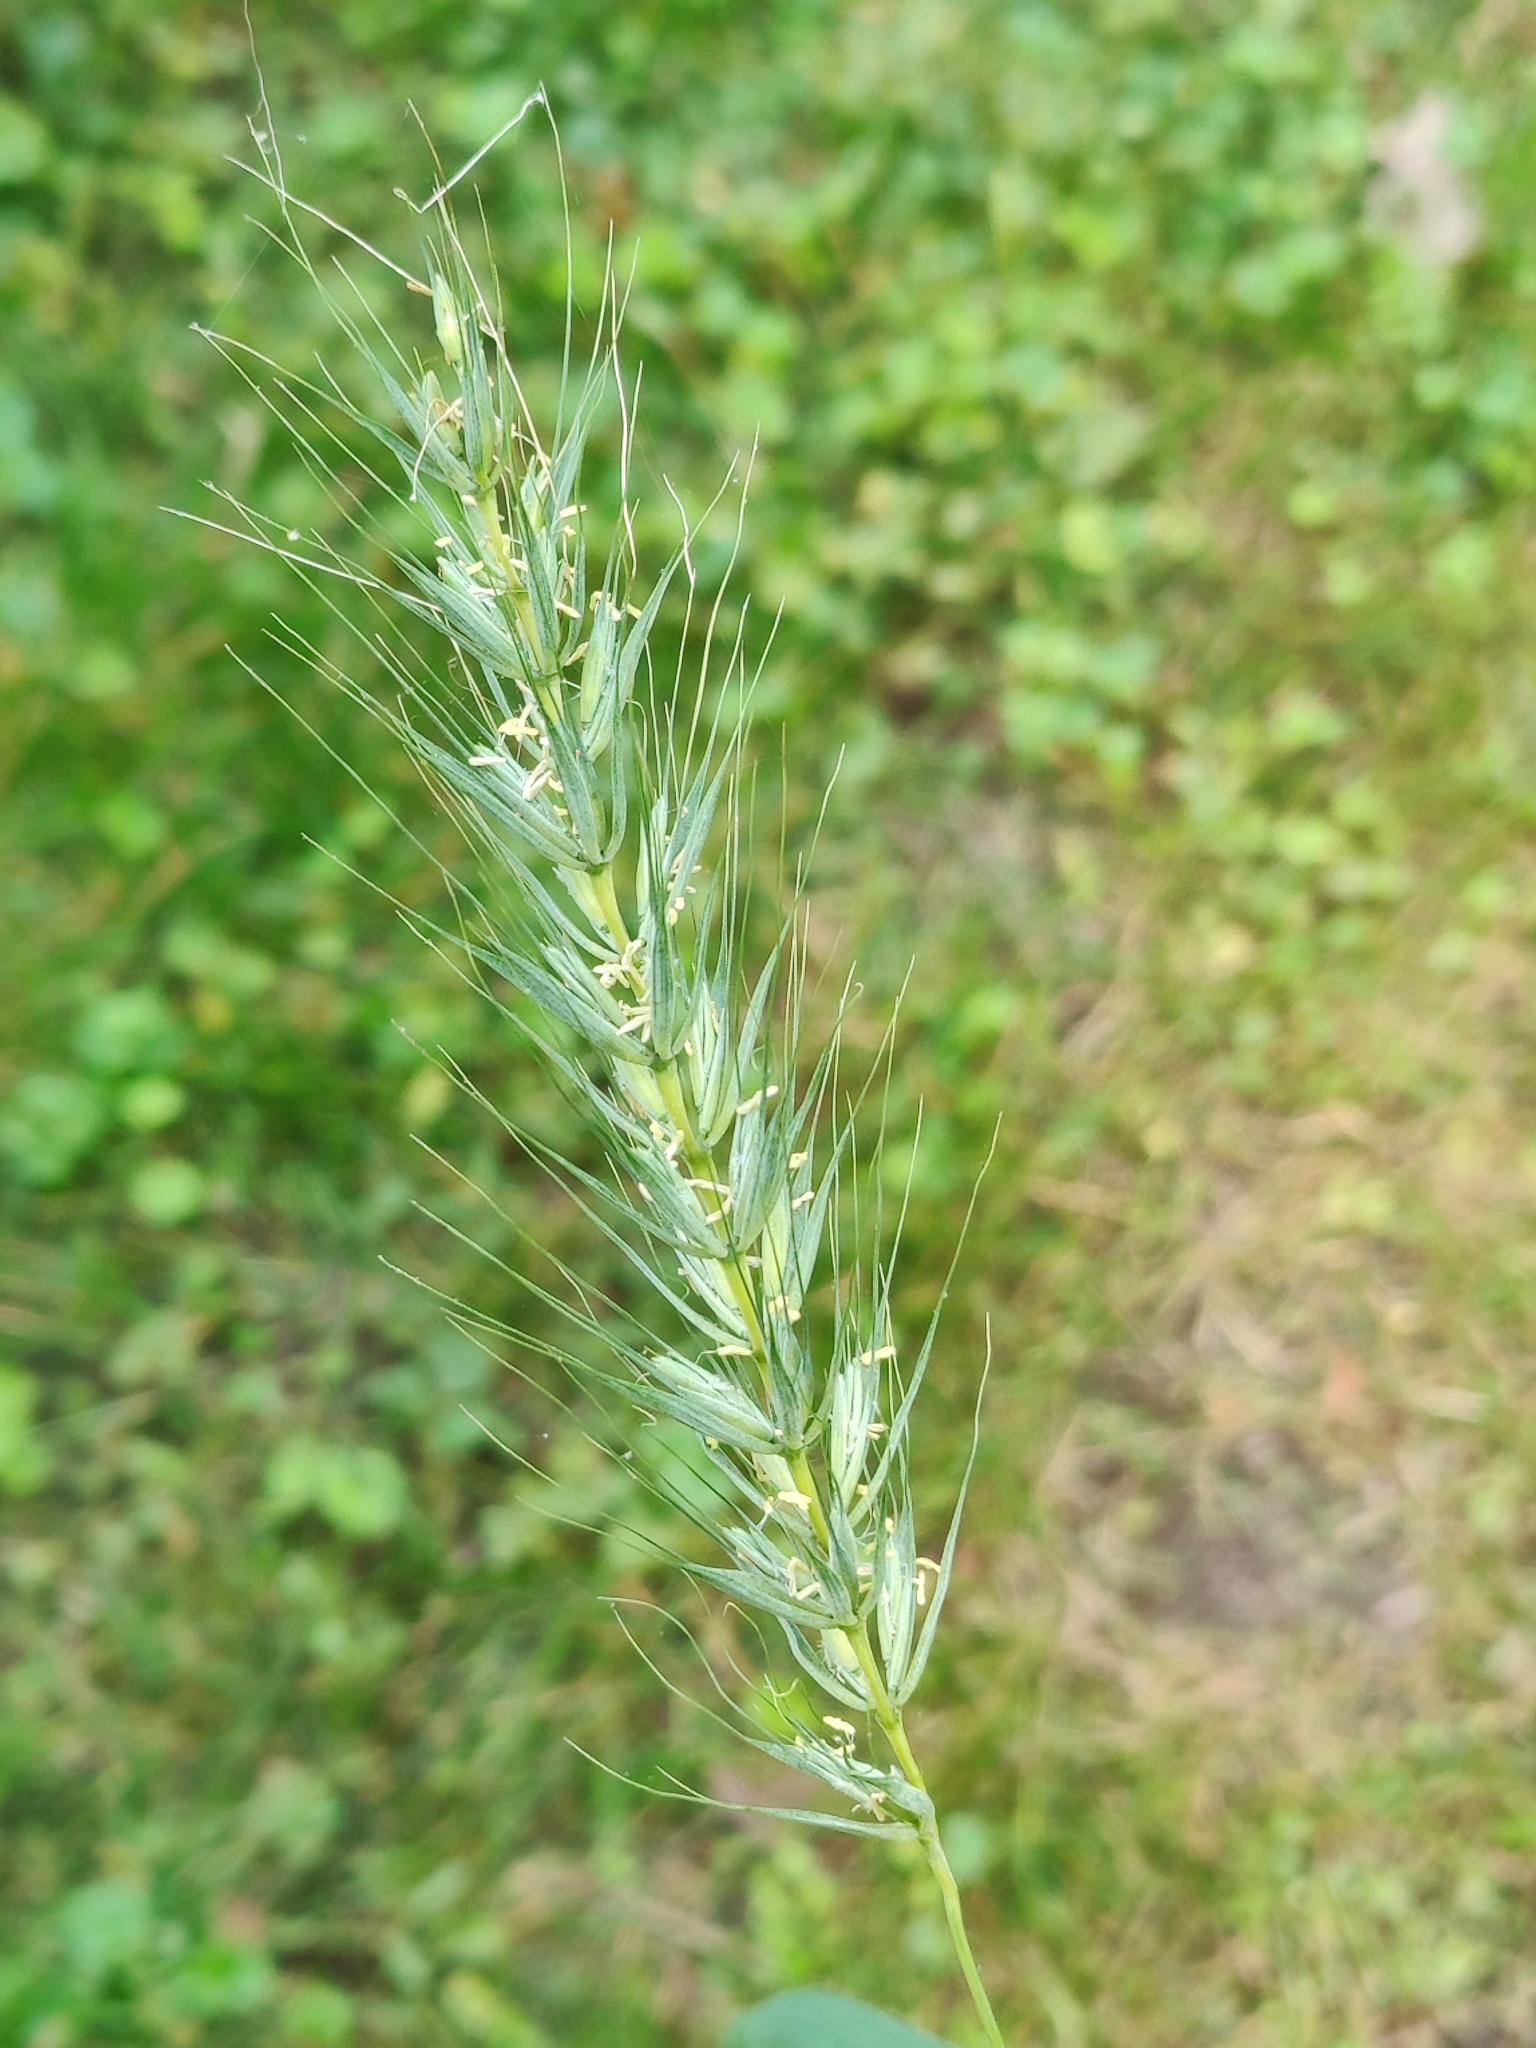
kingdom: Plantae
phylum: Tracheophyta
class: Liliopsida
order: Poales
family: Poaceae
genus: Elymus
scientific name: Elymus canadensis
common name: Canada wild rye
